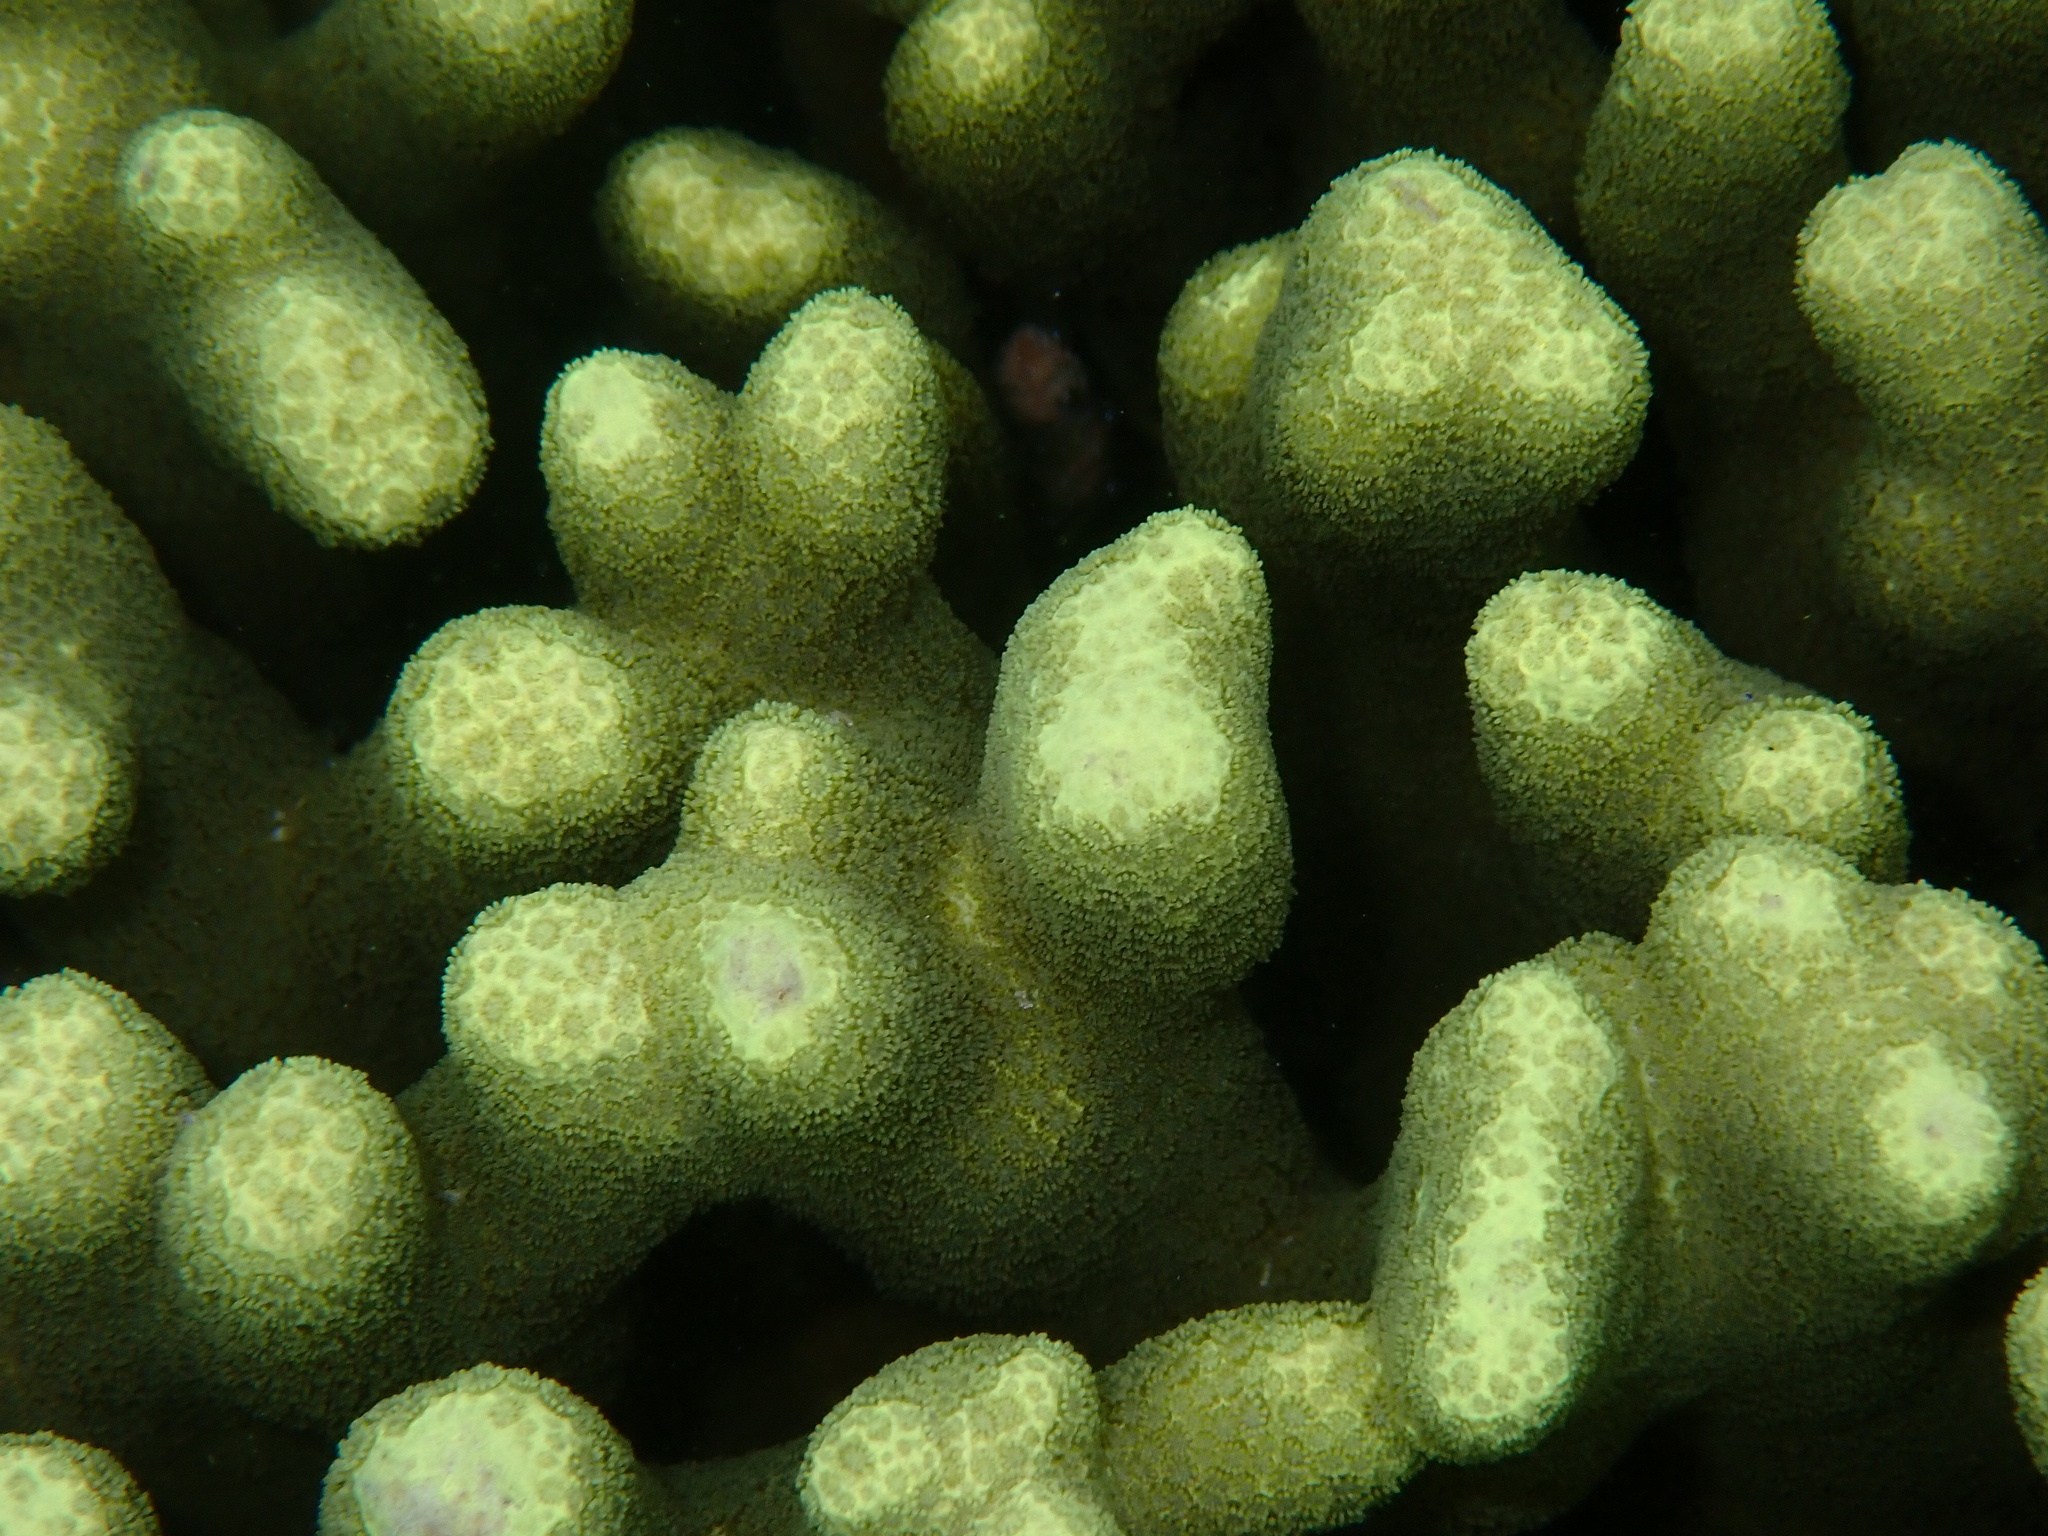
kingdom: Animalia
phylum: Cnidaria
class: Anthozoa
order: Scleractinia
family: Poritidae
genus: Porites
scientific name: Porites cylindrica
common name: Hump coral
